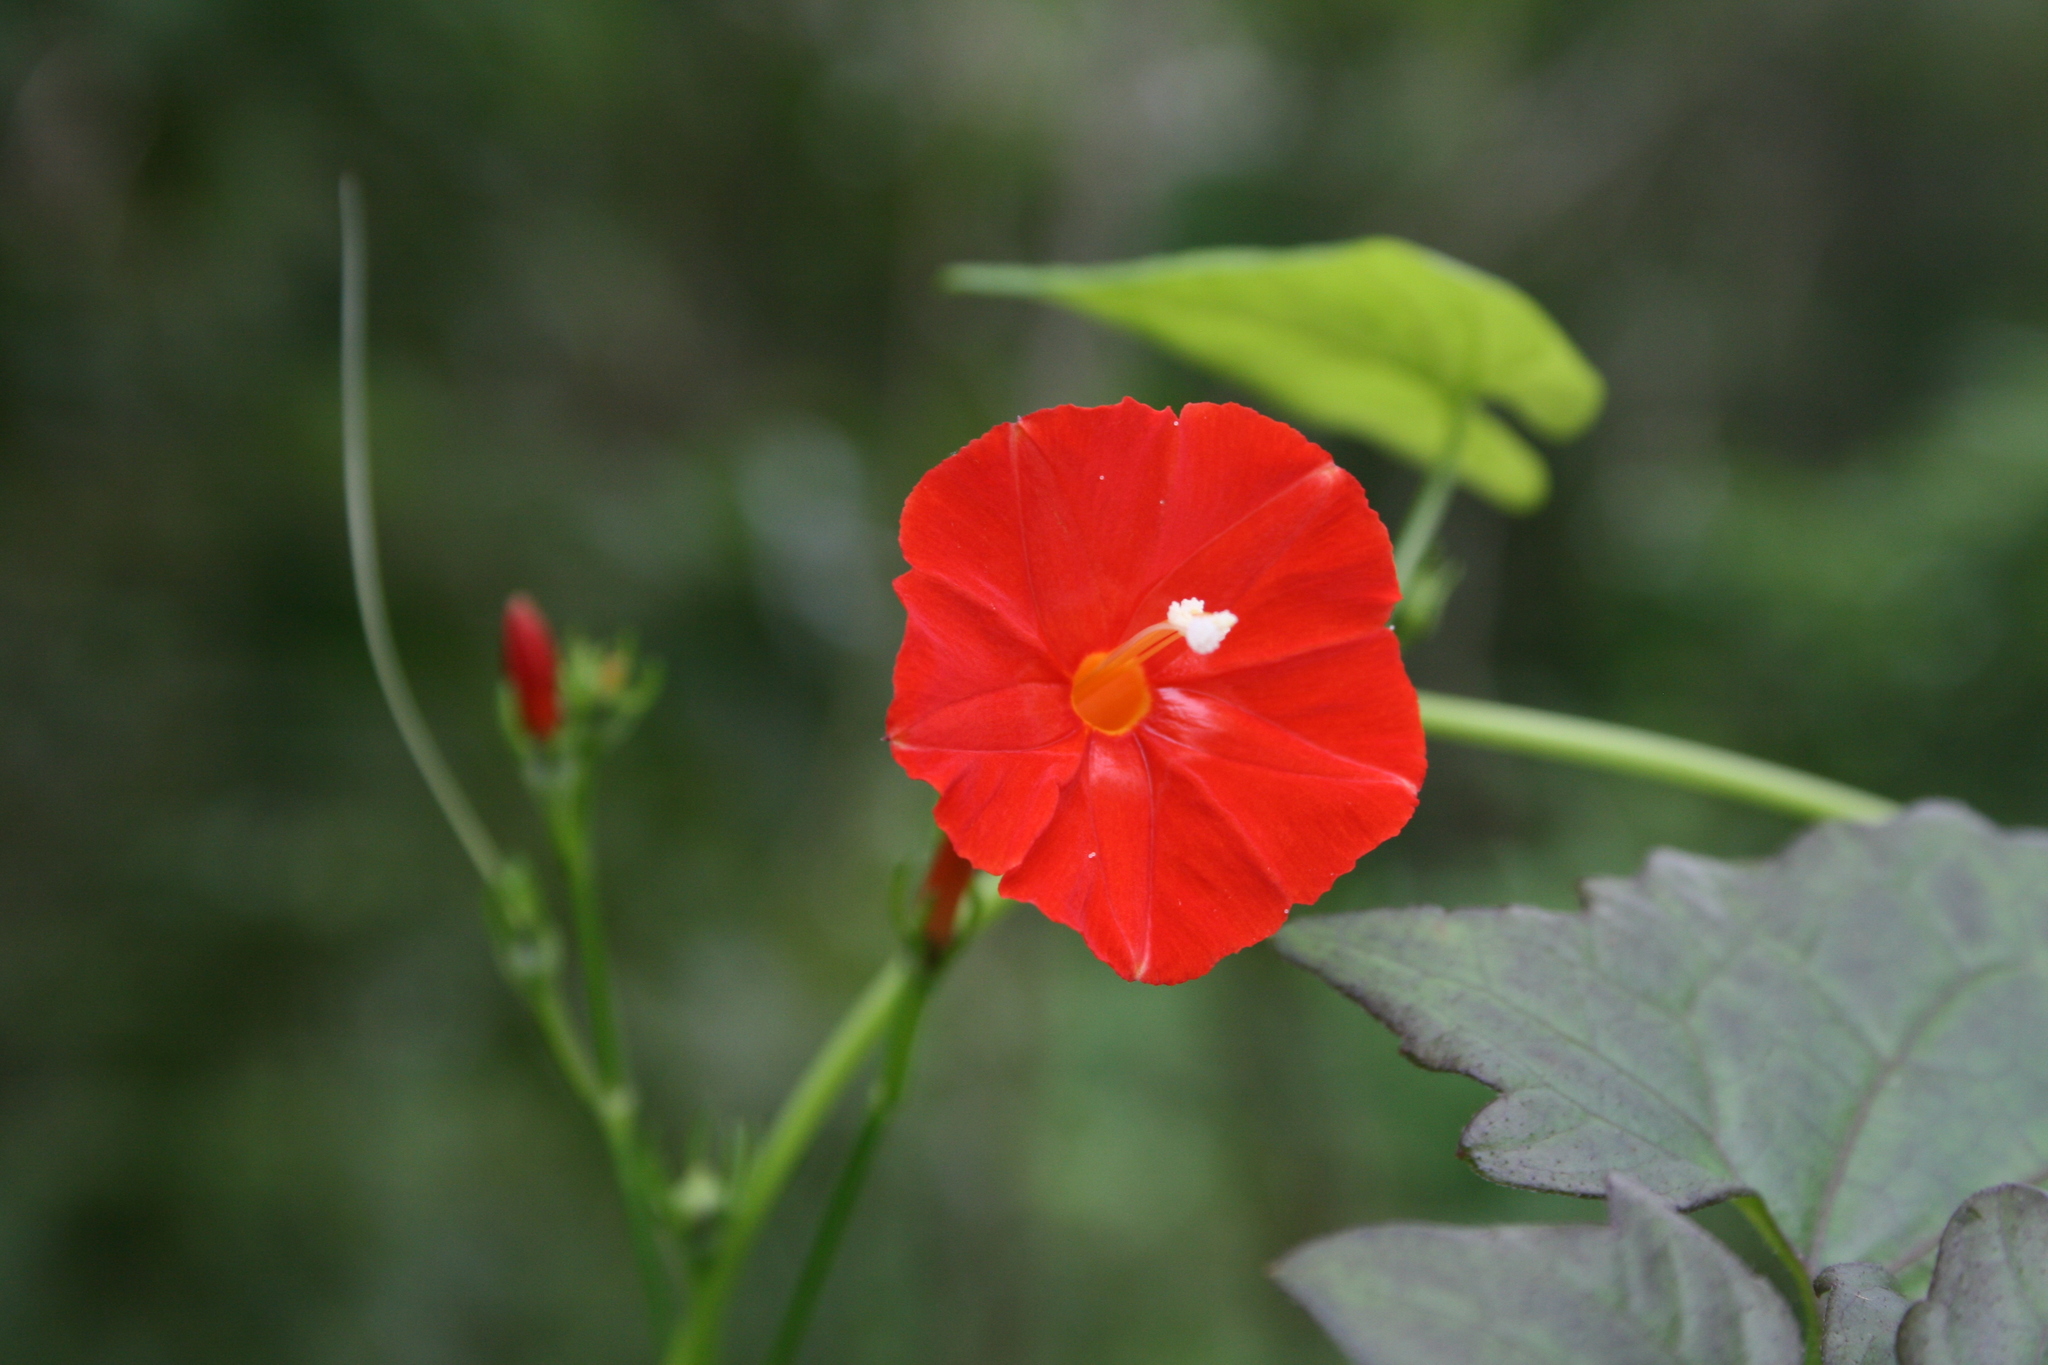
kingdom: Plantae
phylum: Tracheophyta
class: Magnoliopsida
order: Solanales
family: Convolvulaceae
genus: Ipomoea
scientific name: Ipomoea hederifolia
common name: Ivy-leaf morning-glory
